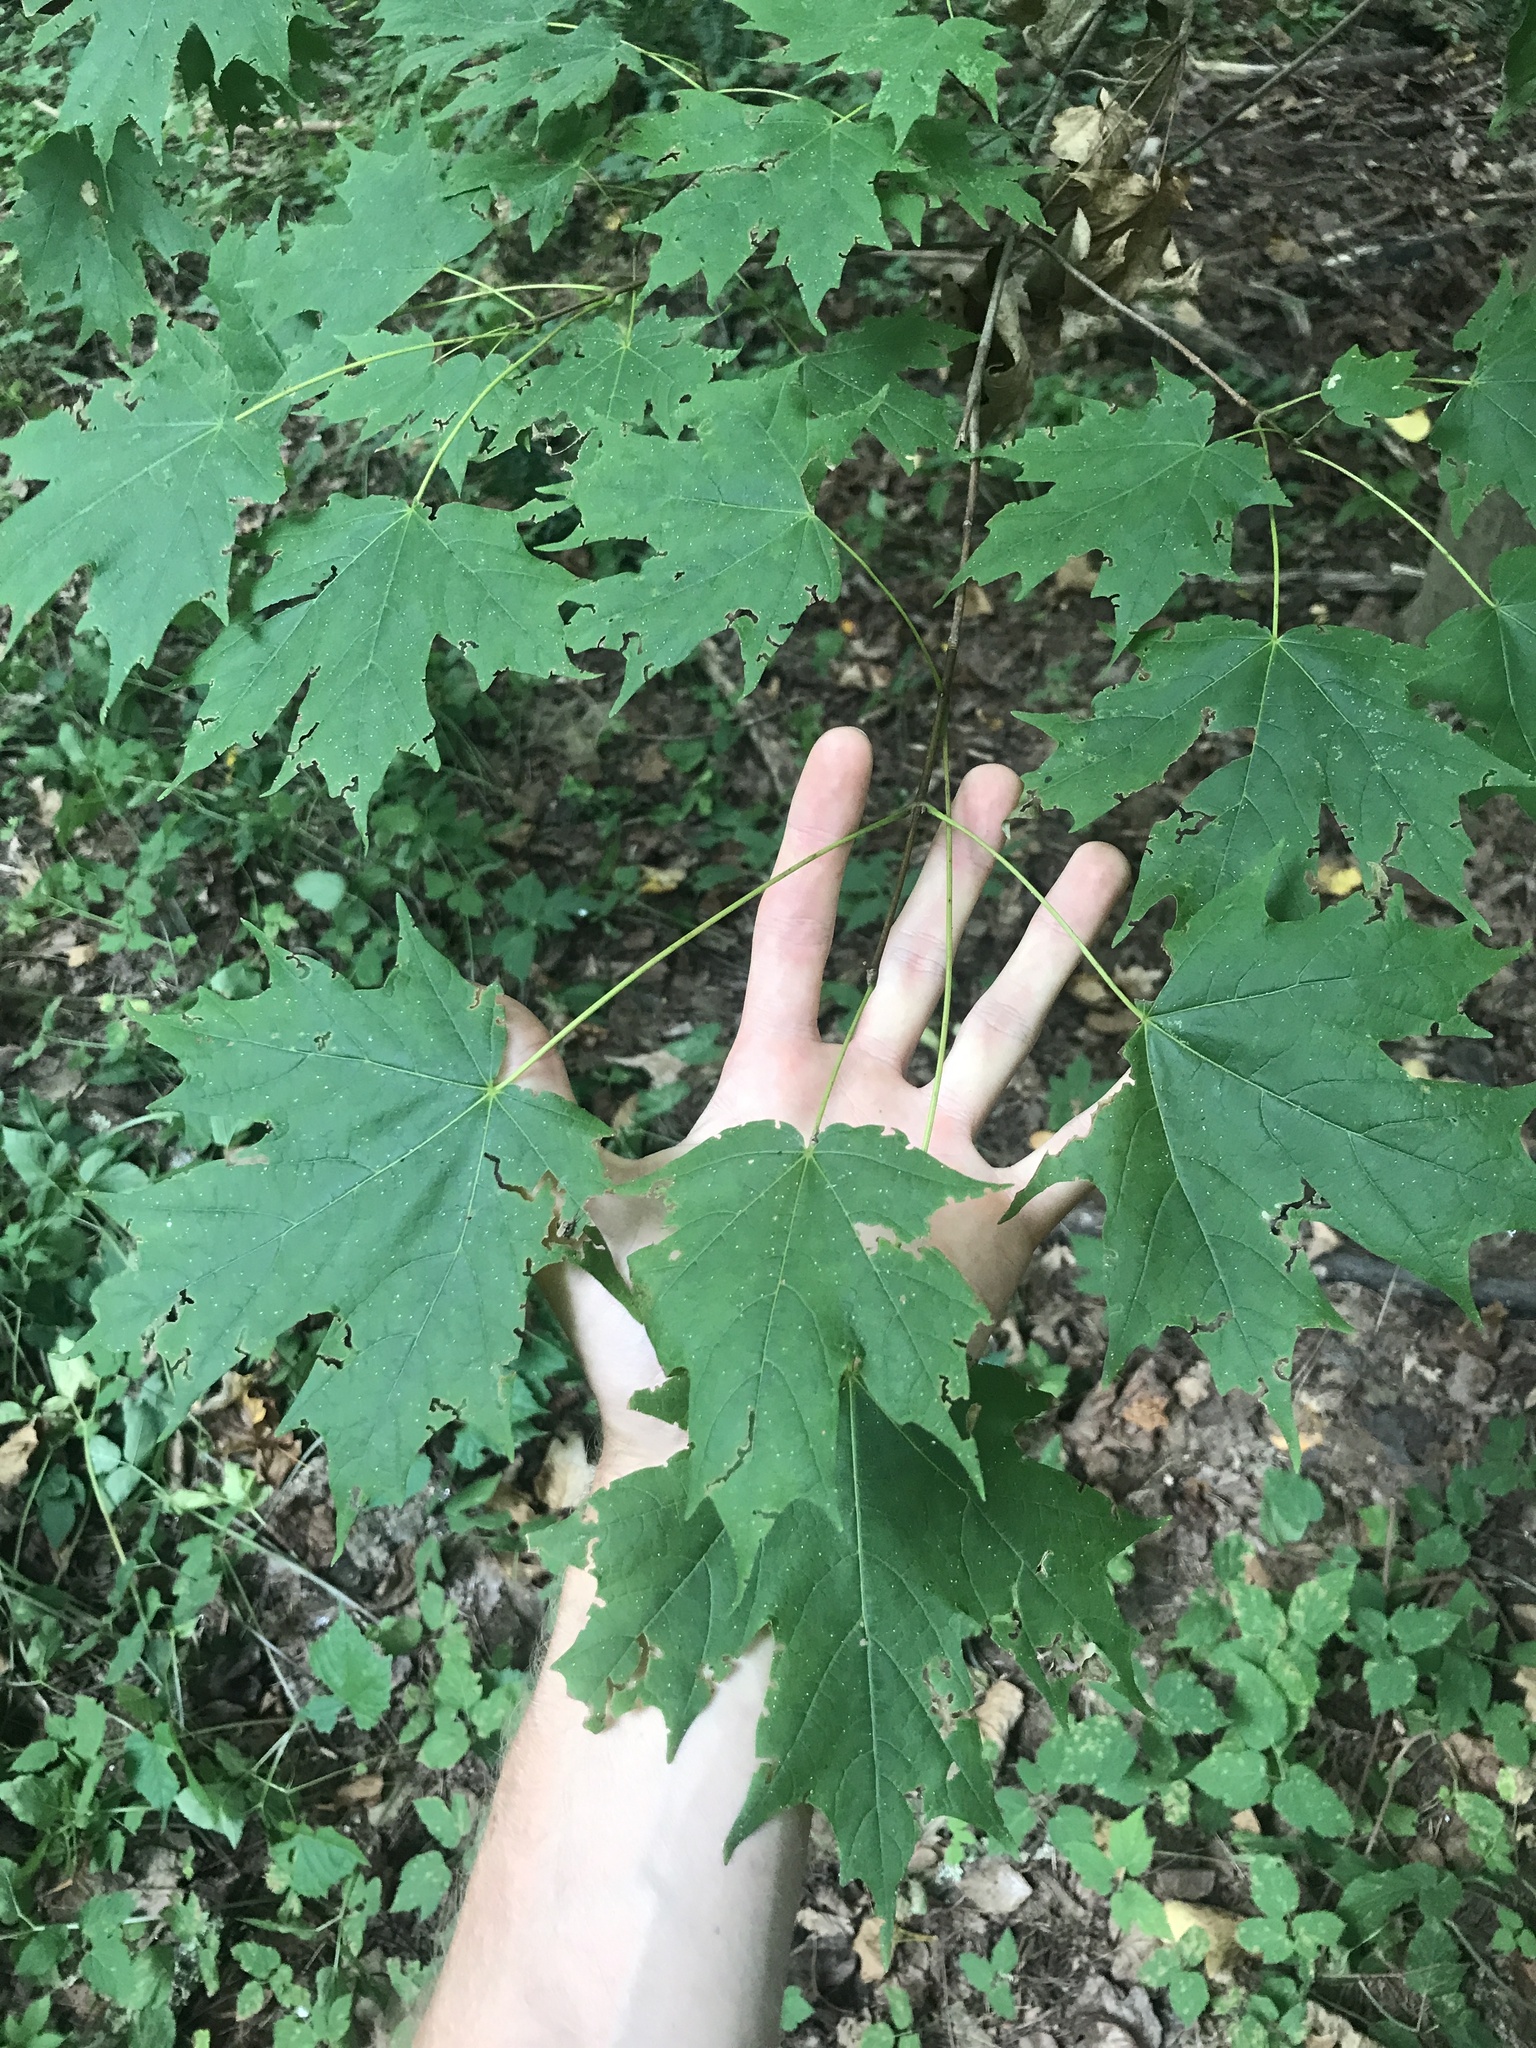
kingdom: Plantae
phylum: Tracheophyta
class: Magnoliopsida
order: Sapindales
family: Sapindaceae
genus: Acer
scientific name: Acer saccharum
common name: Sugar maple
